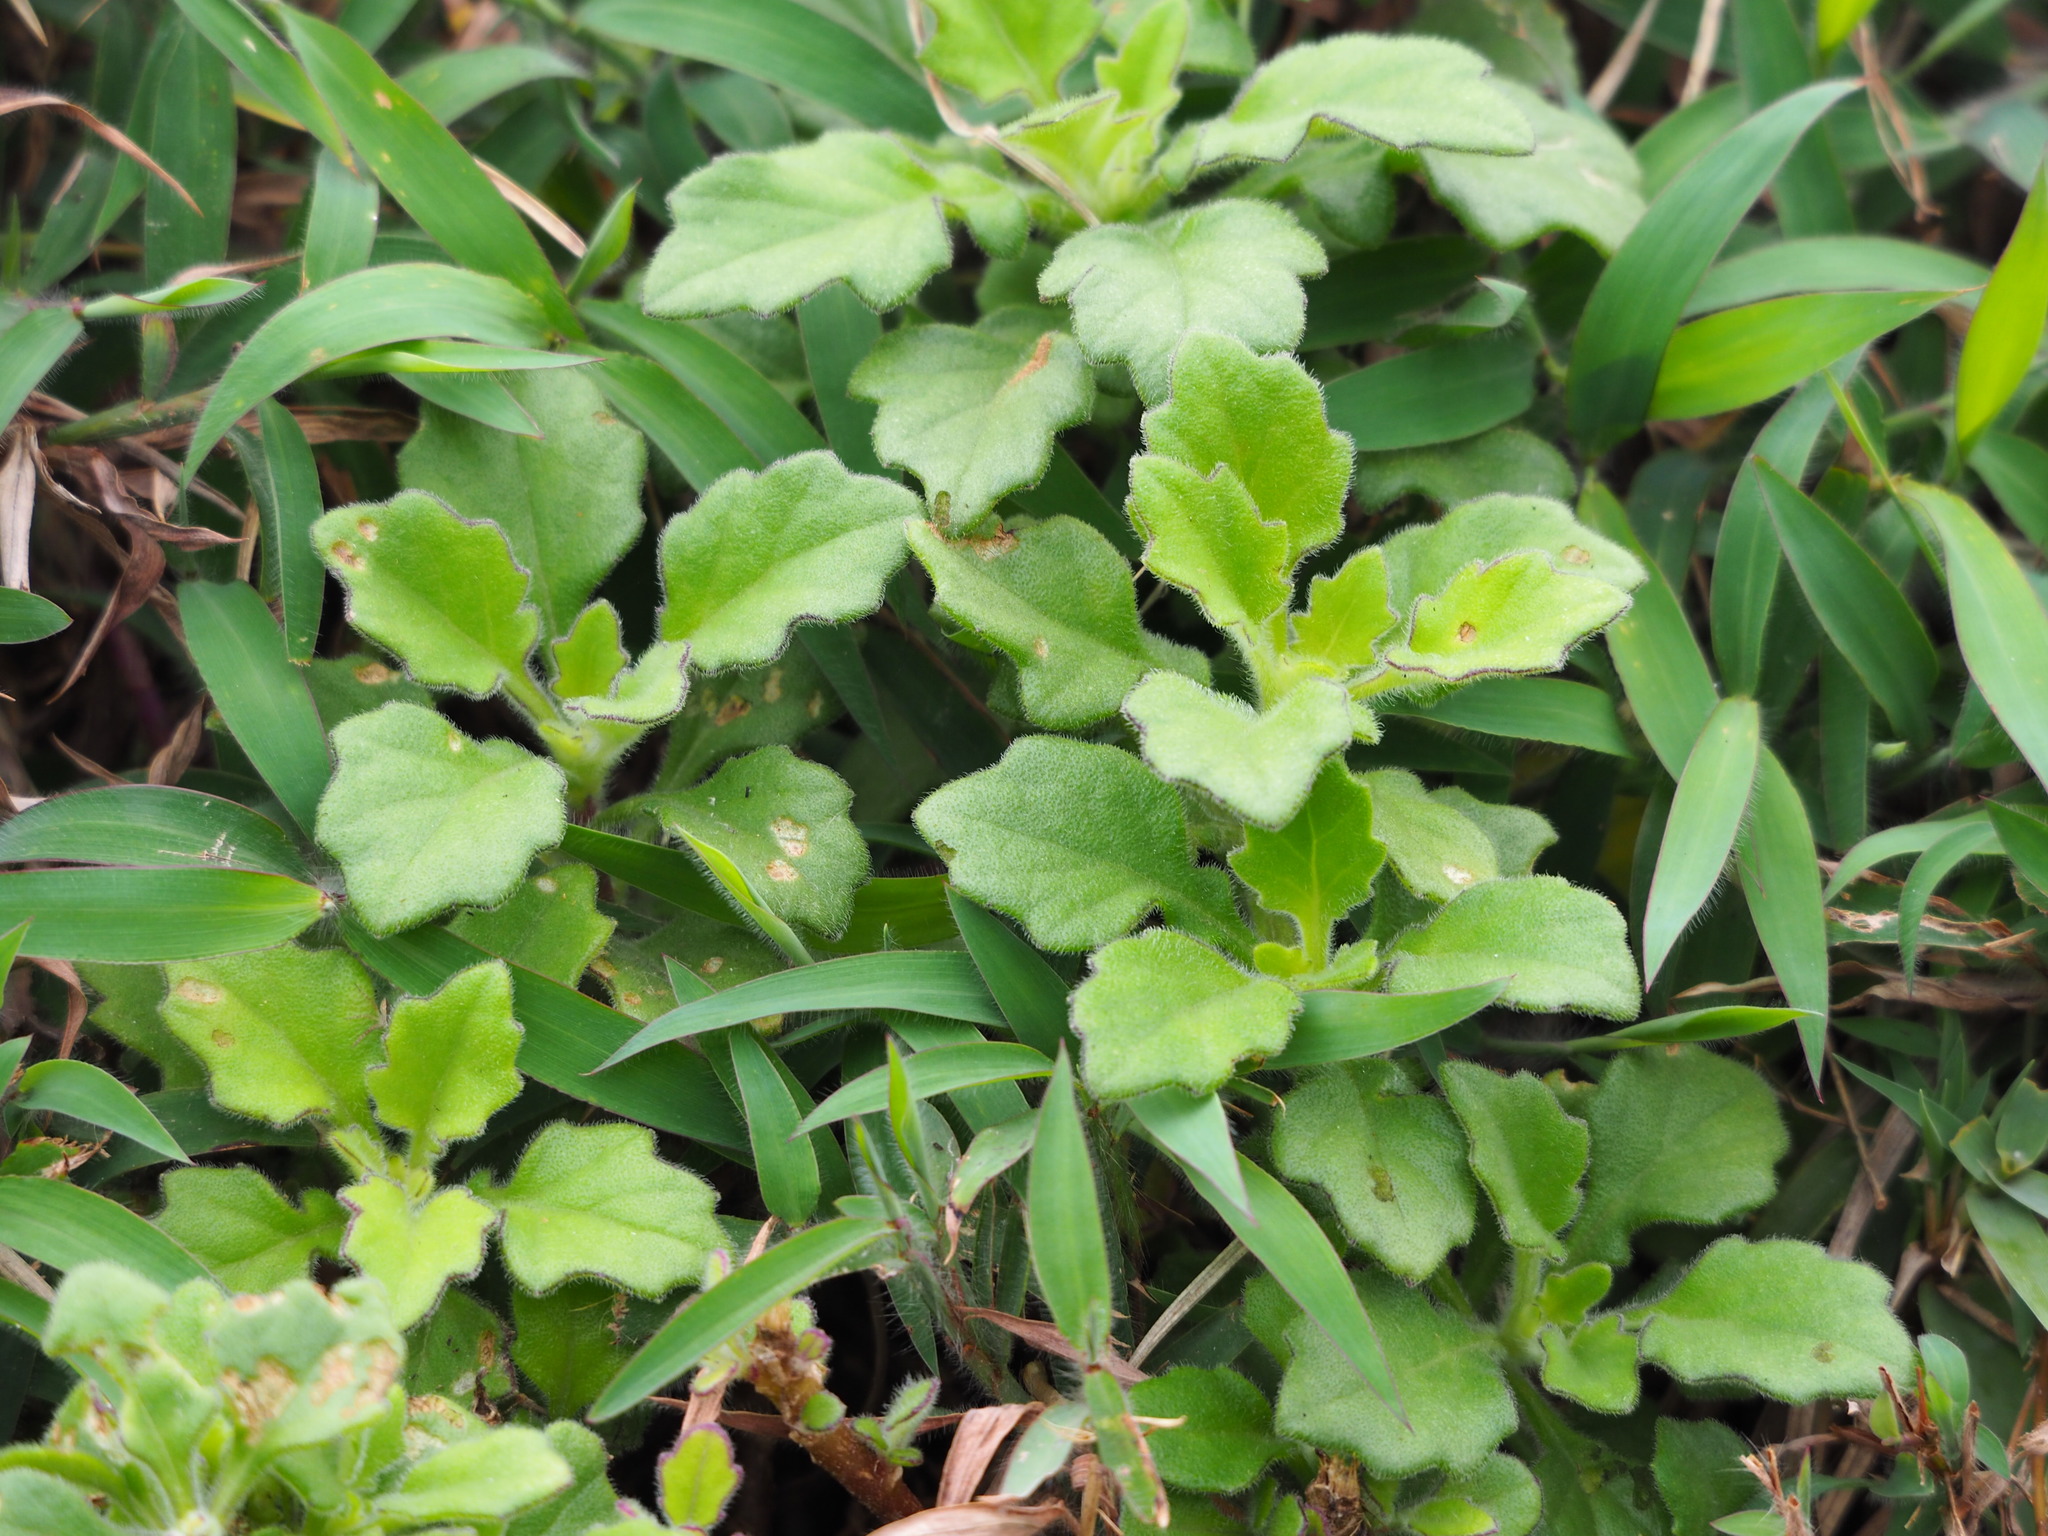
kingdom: Plantae
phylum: Tracheophyta
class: Magnoliopsida
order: Asterales
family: Asteraceae
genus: Gynura
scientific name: Gynura formosana
